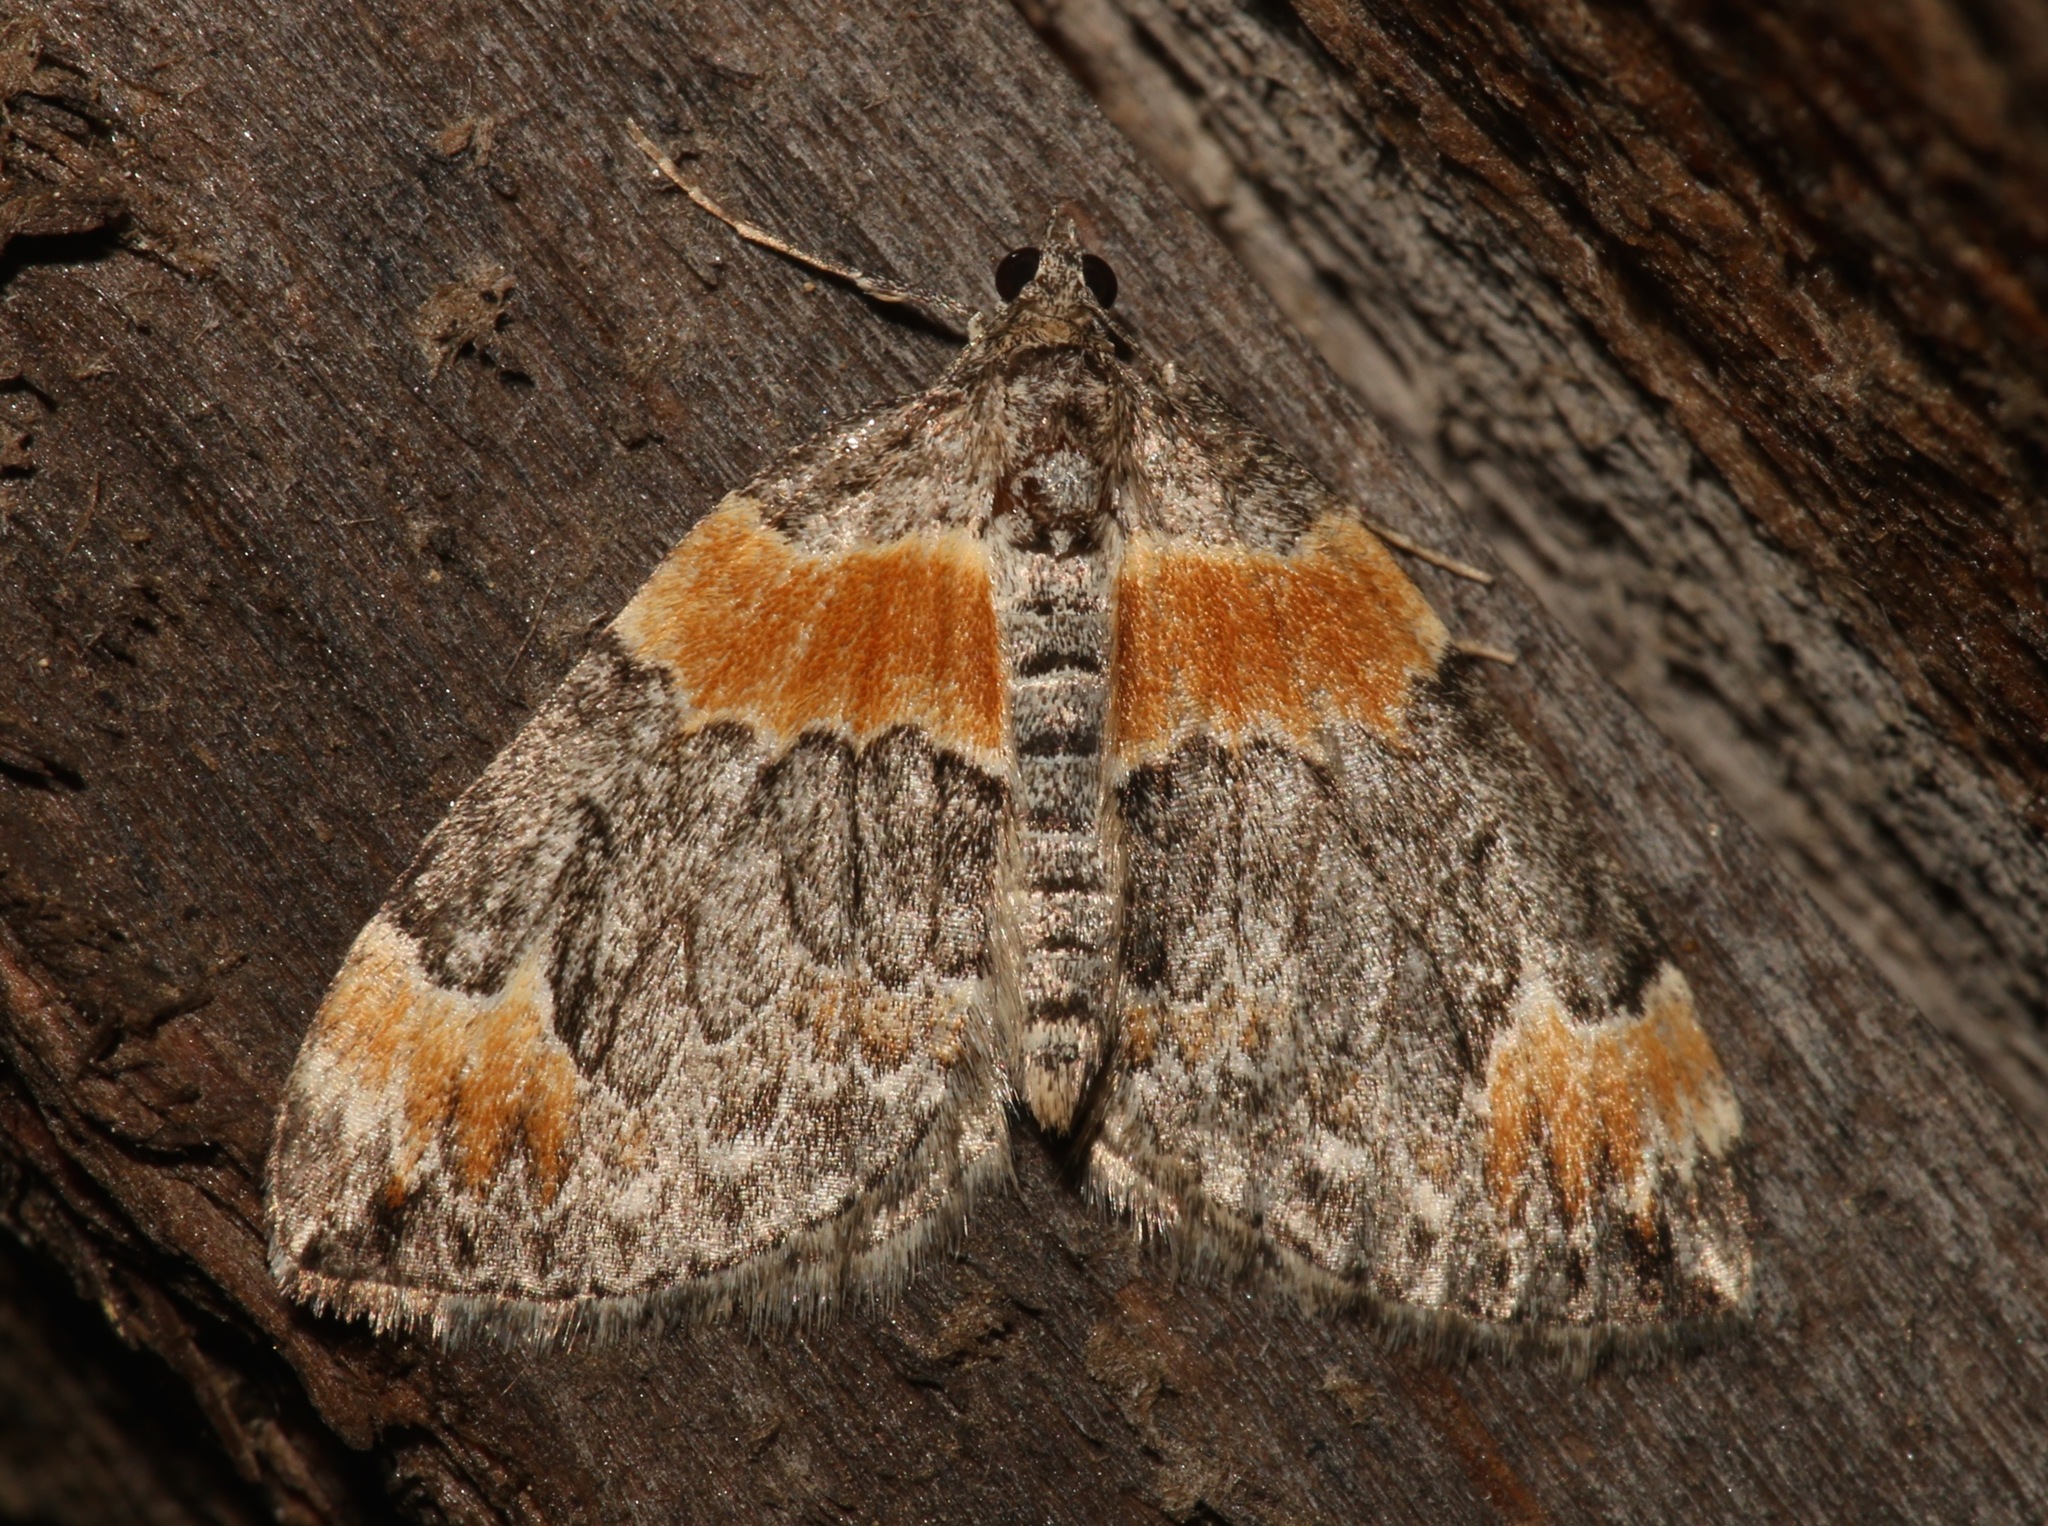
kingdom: Animalia
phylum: Arthropoda
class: Insecta
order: Lepidoptera
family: Geometridae
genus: Dysstroma
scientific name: Dysstroma hersiliata
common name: Orange-barred carpet
